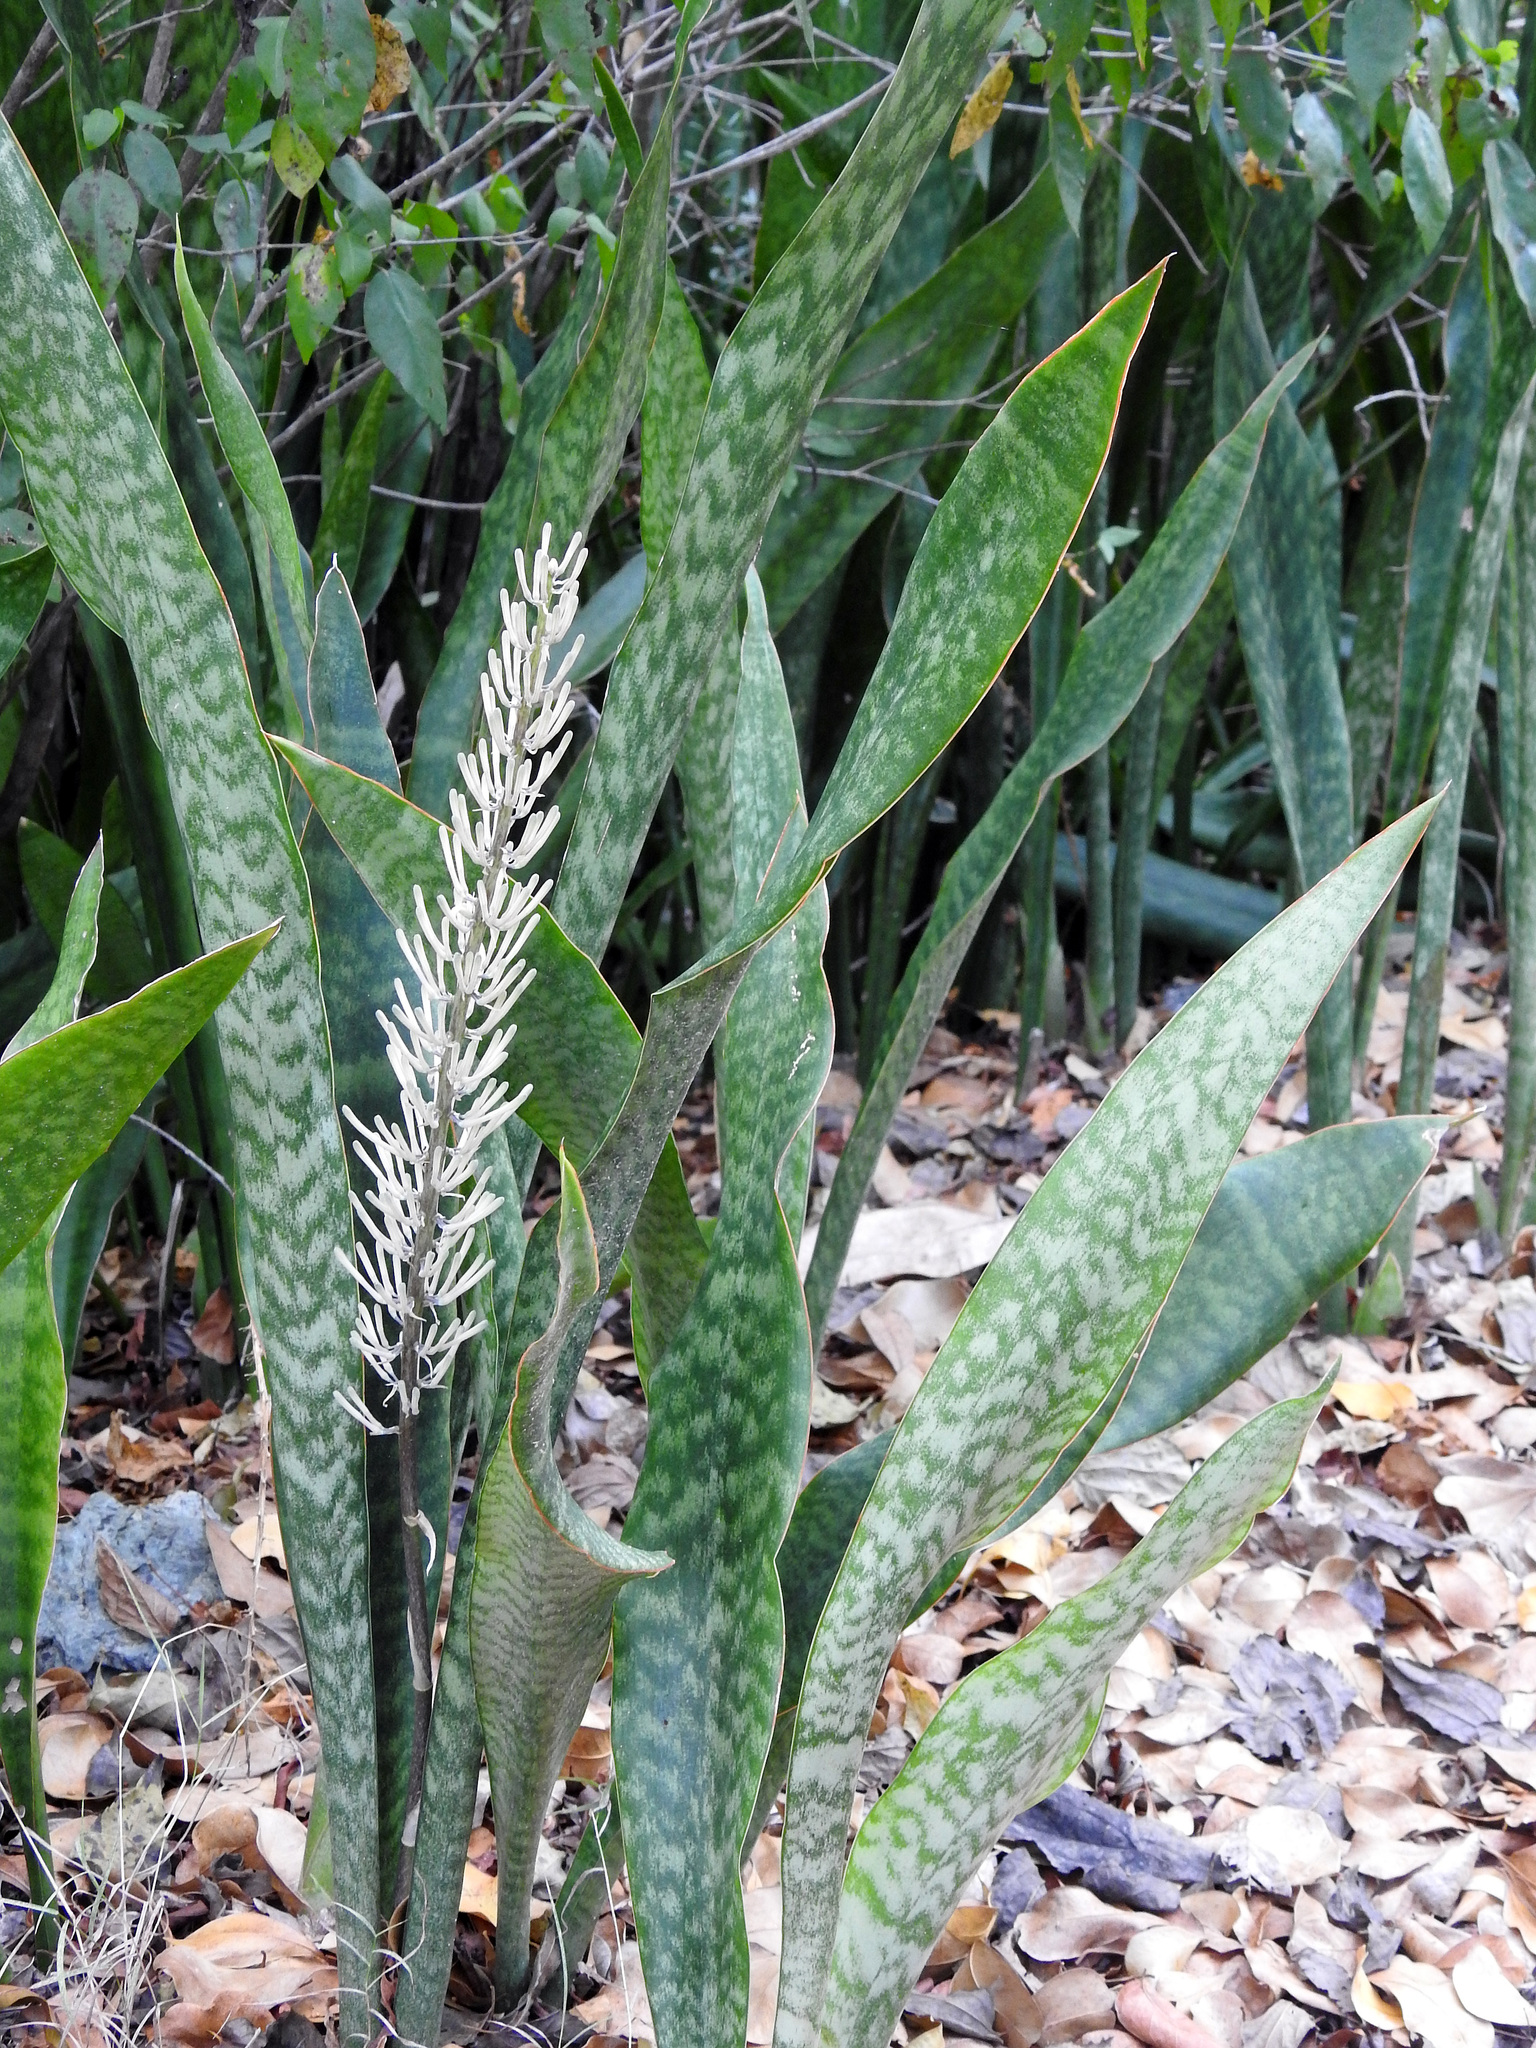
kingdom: Plantae
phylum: Tracheophyta
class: Liliopsida
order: Asparagales
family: Asparagaceae
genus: Dracaena
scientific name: Dracaena hyacinthoides
